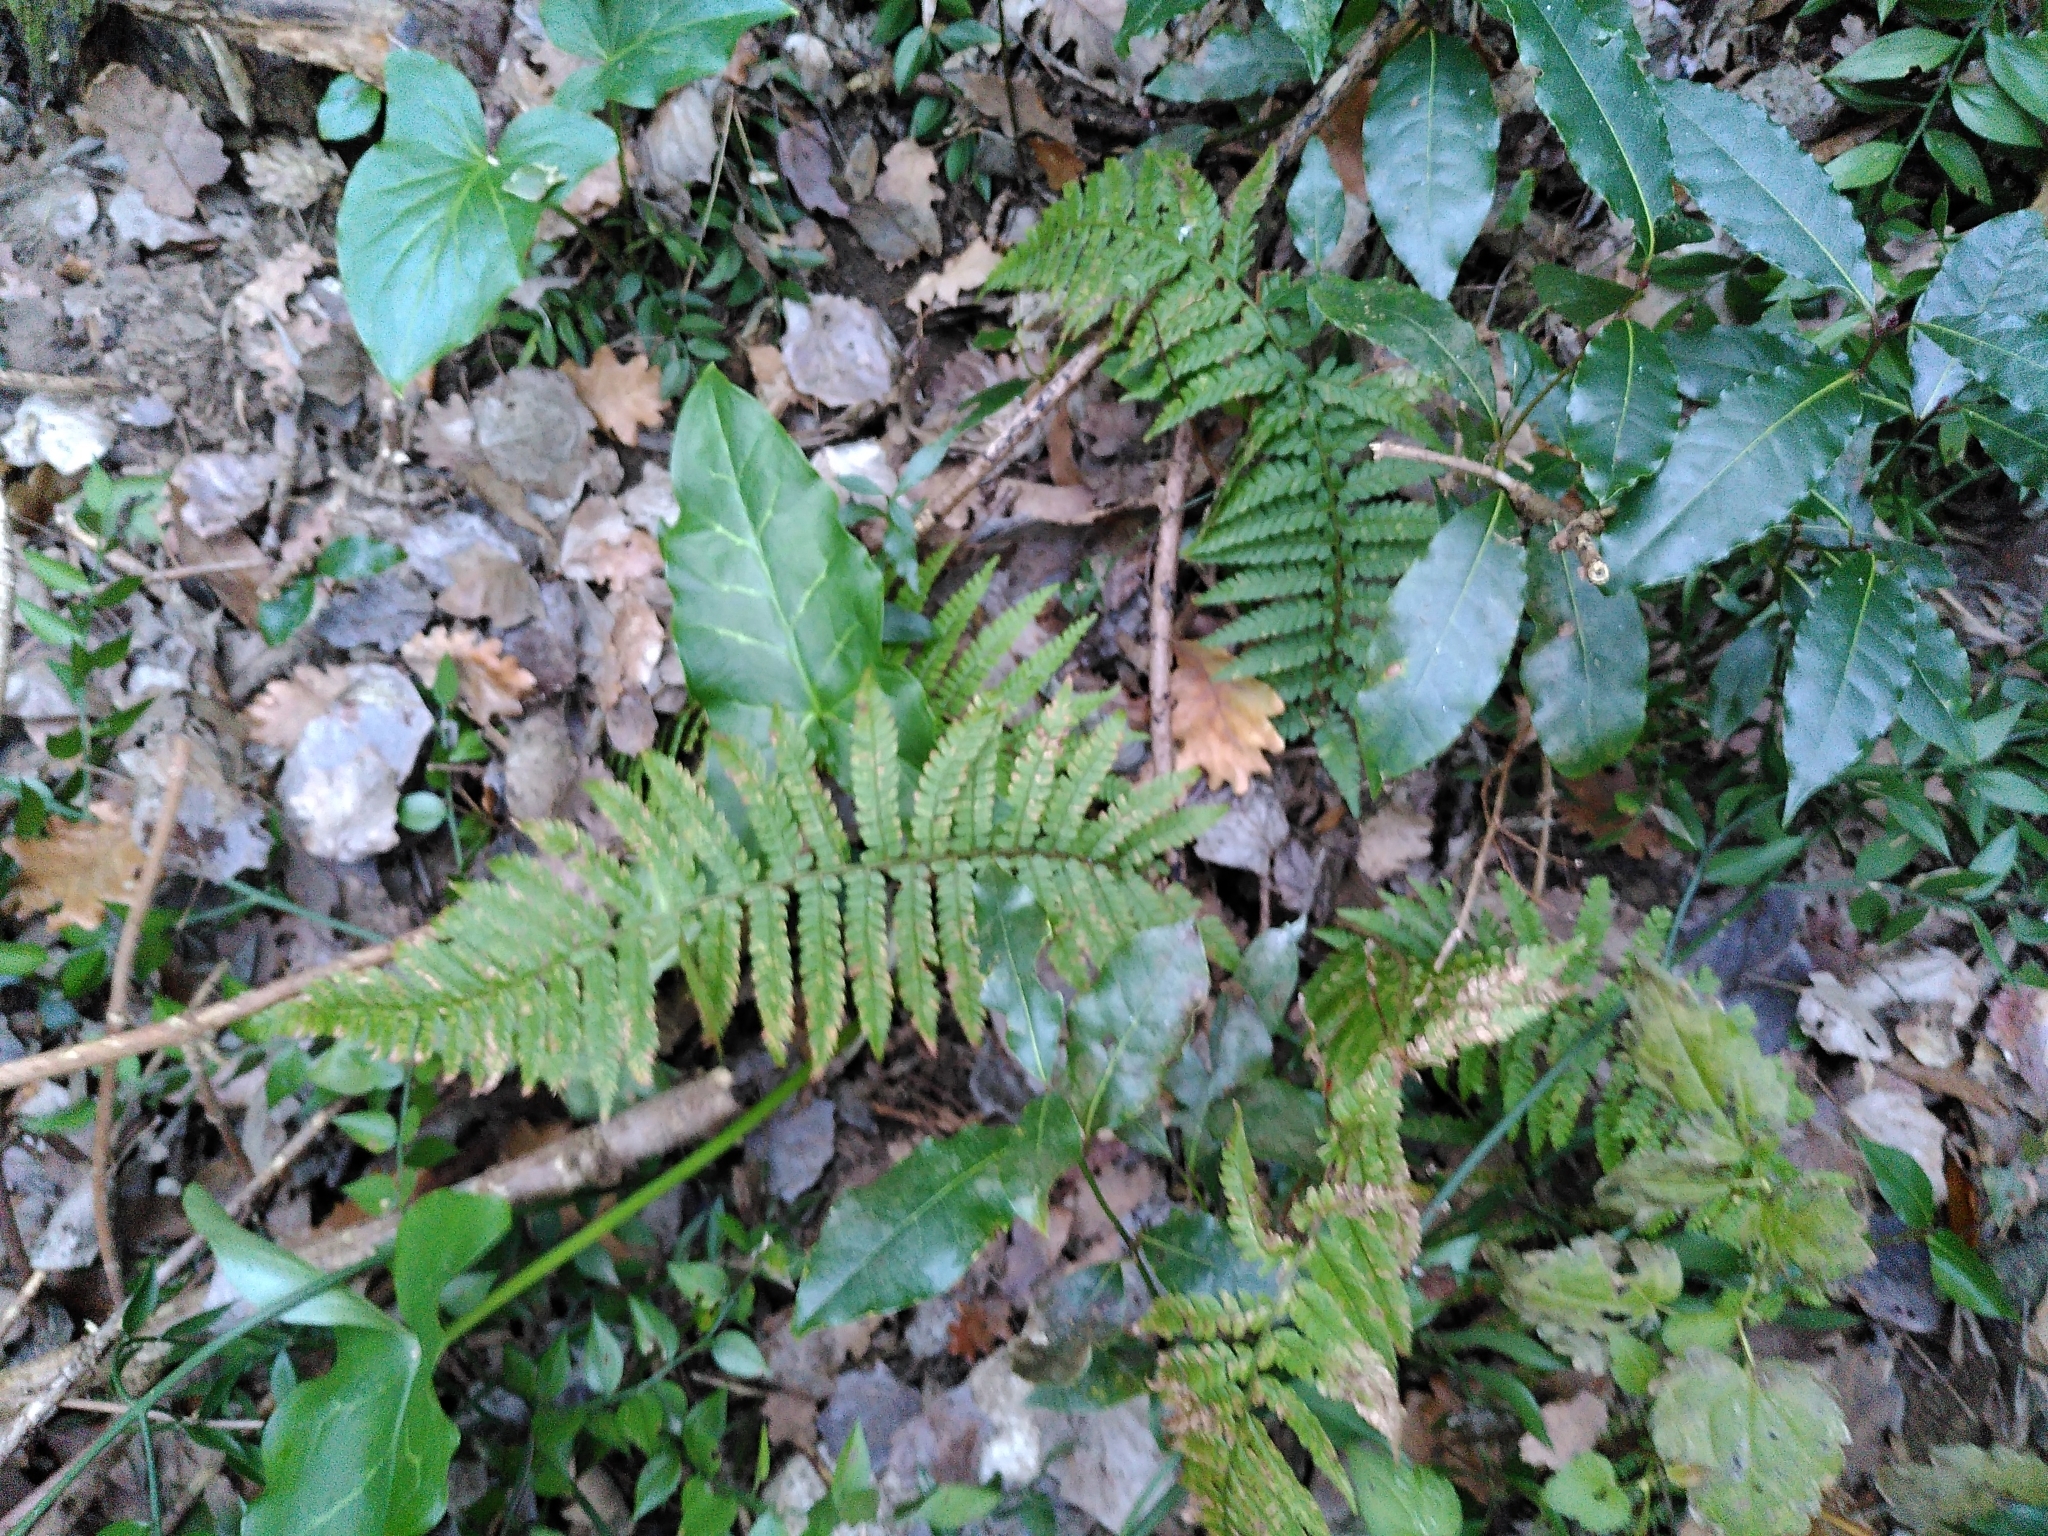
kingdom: Plantae
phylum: Tracheophyta
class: Polypodiopsida
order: Polypodiales
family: Dryopteridaceae
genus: Polystichum
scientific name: Polystichum setiferum
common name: Soft shield-fern
